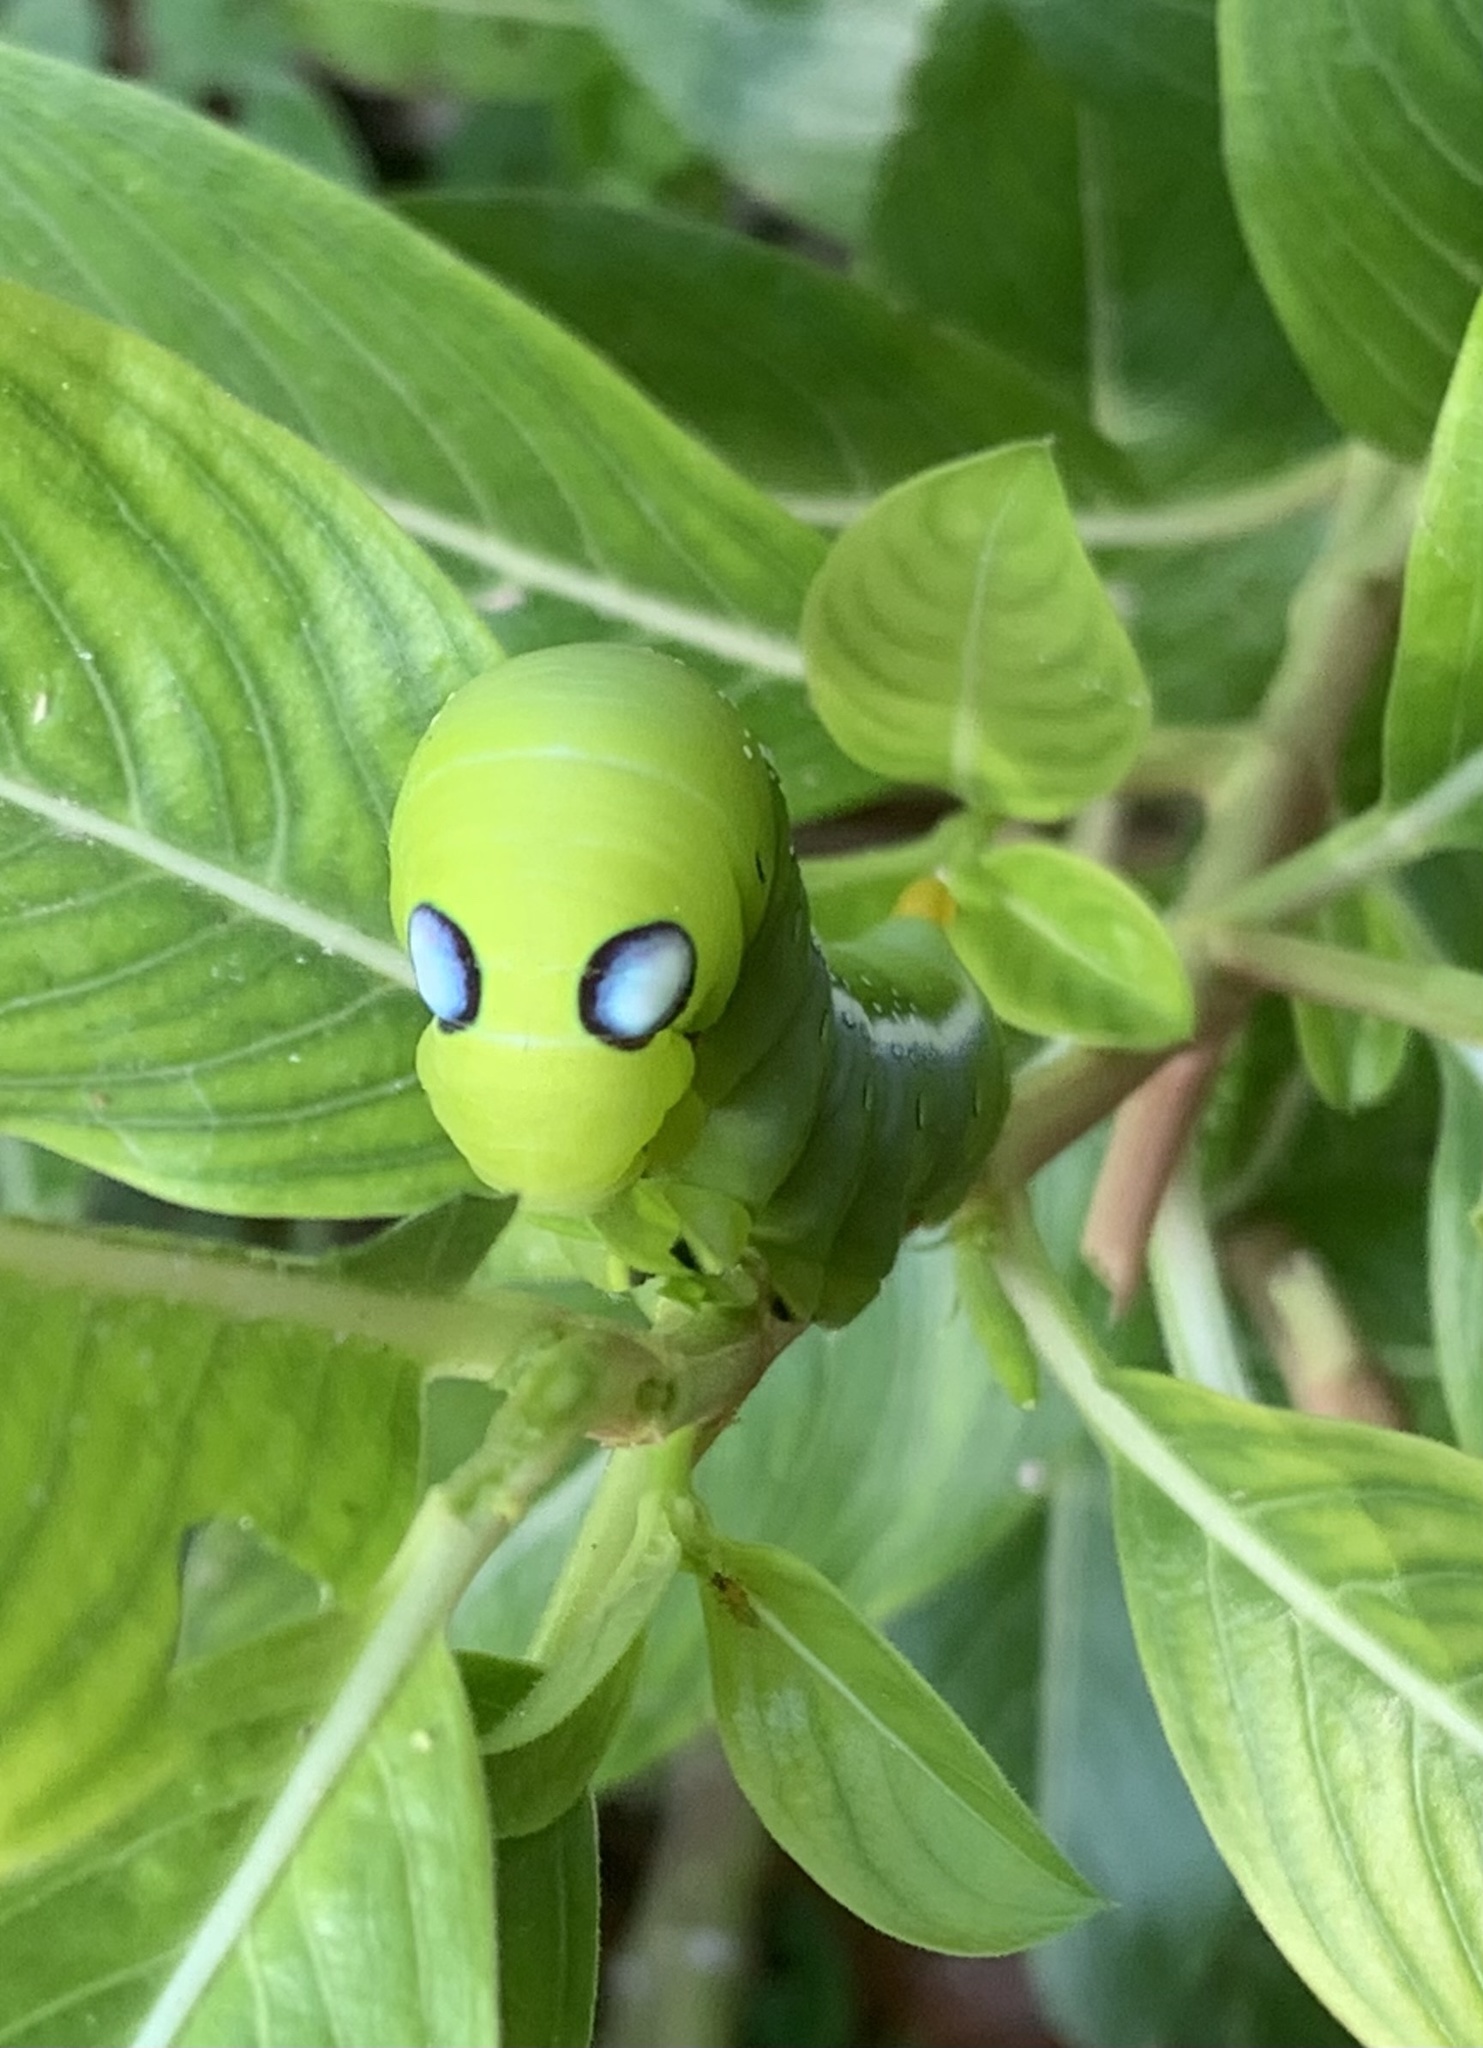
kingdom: Animalia
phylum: Arthropoda
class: Insecta
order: Lepidoptera
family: Sphingidae
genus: Daphnis
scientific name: Daphnis nerii
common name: Oleander hawk-moth
